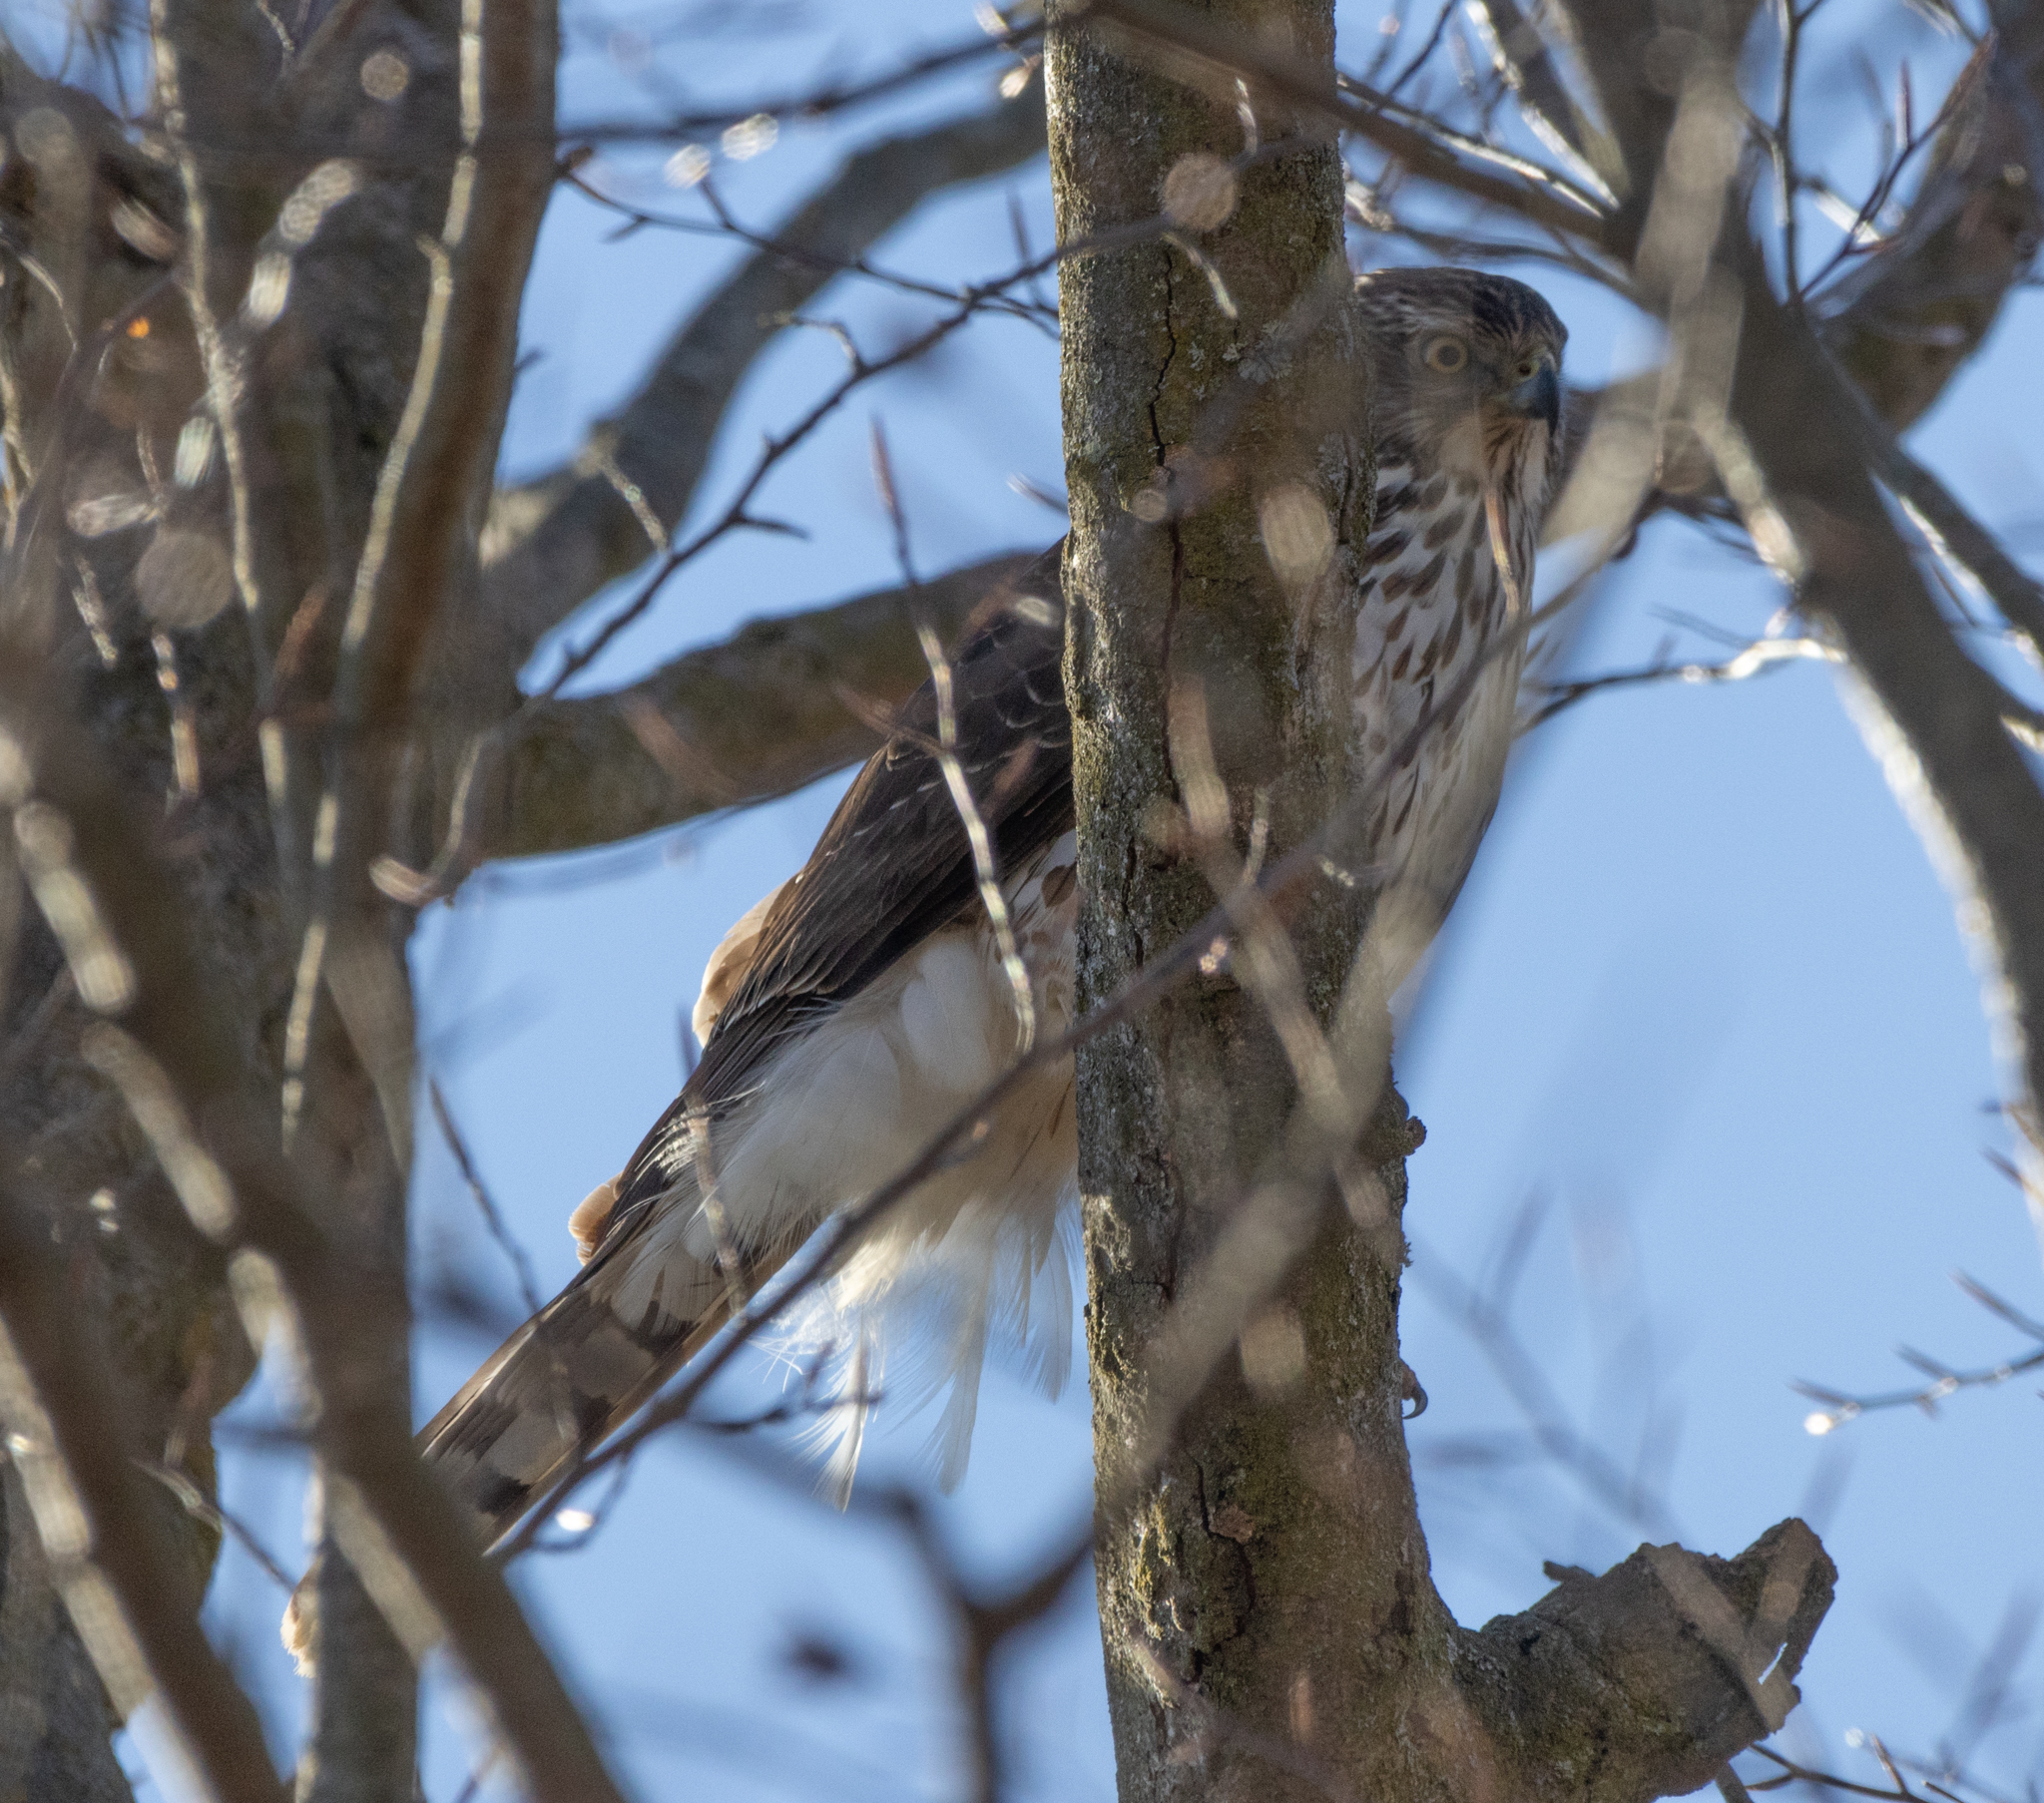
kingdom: Animalia
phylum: Chordata
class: Aves
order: Accipitriformes
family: Accipitridae
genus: Accipiter
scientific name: Accipiter cooperii
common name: Cooper's hawk
